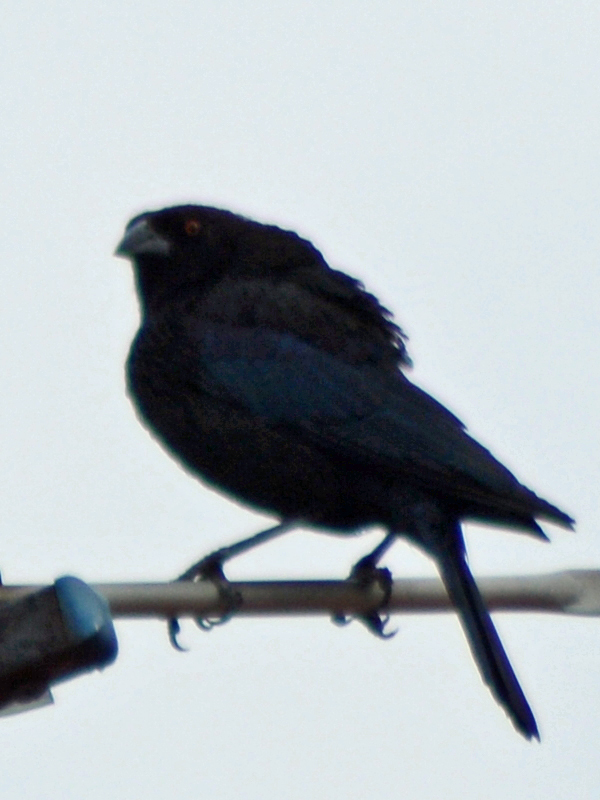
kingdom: Animalia
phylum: Chordata
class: Aves
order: Passeriformes
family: Icteridae
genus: Molothrus
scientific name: Molothrus aeneus
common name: Bronzed cowbird
